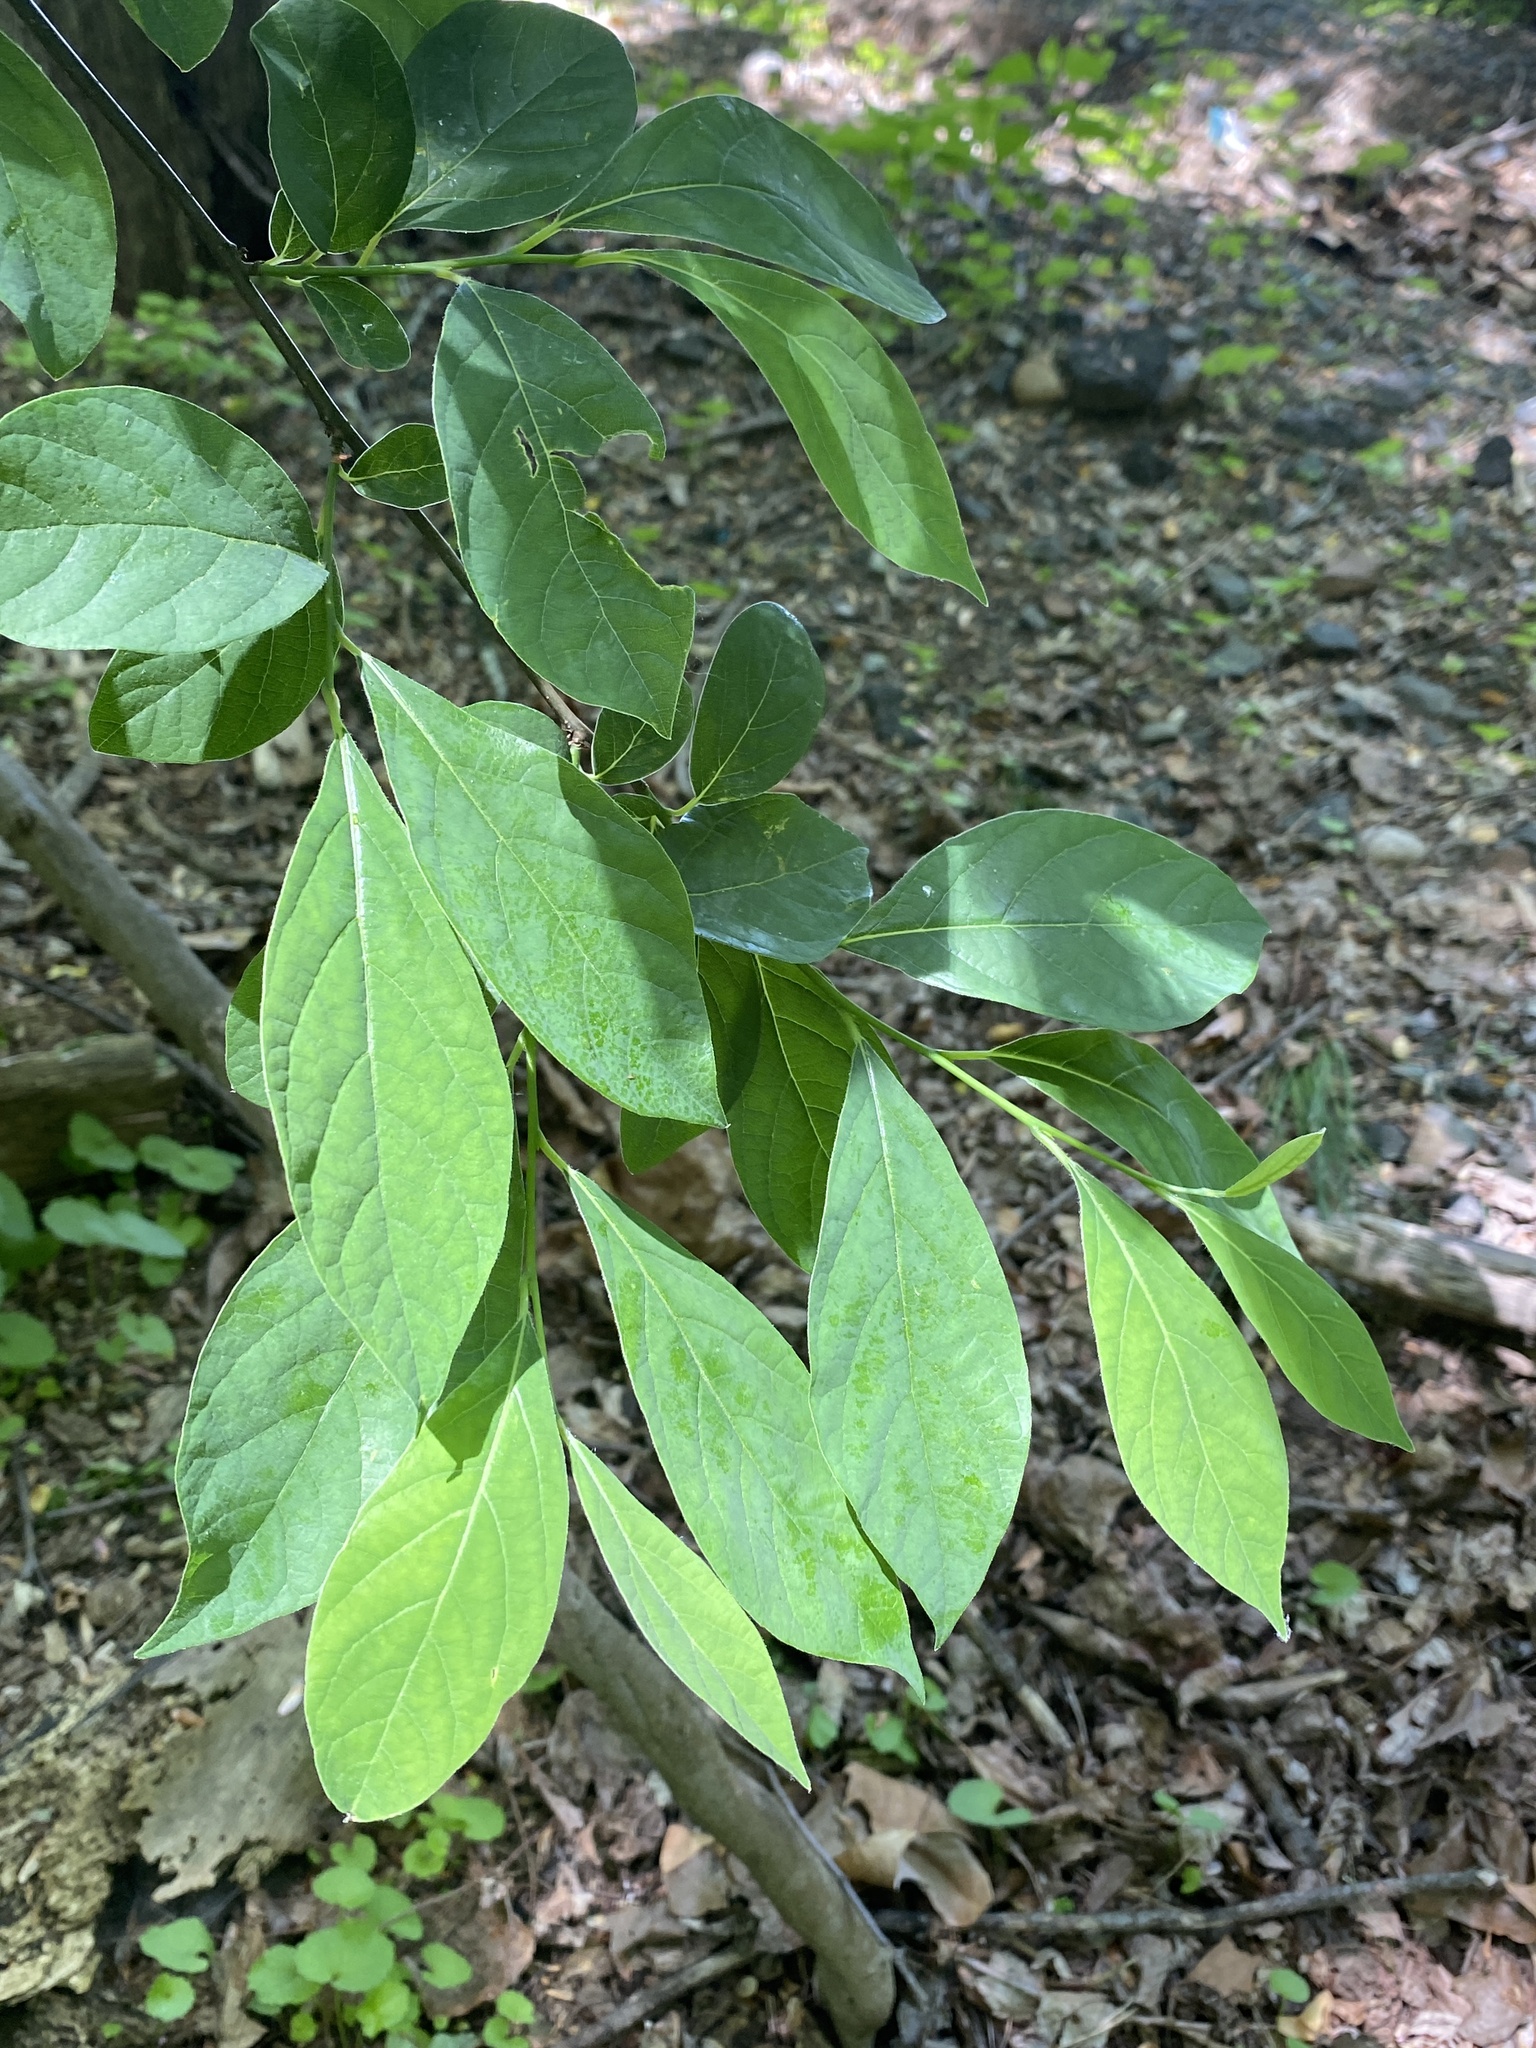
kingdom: Plantae
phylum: Tracheophyta
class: Magnoliopsida
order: Laurales
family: Lauraceae
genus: Lindera
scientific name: Lindera benzoin
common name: Spicebush
